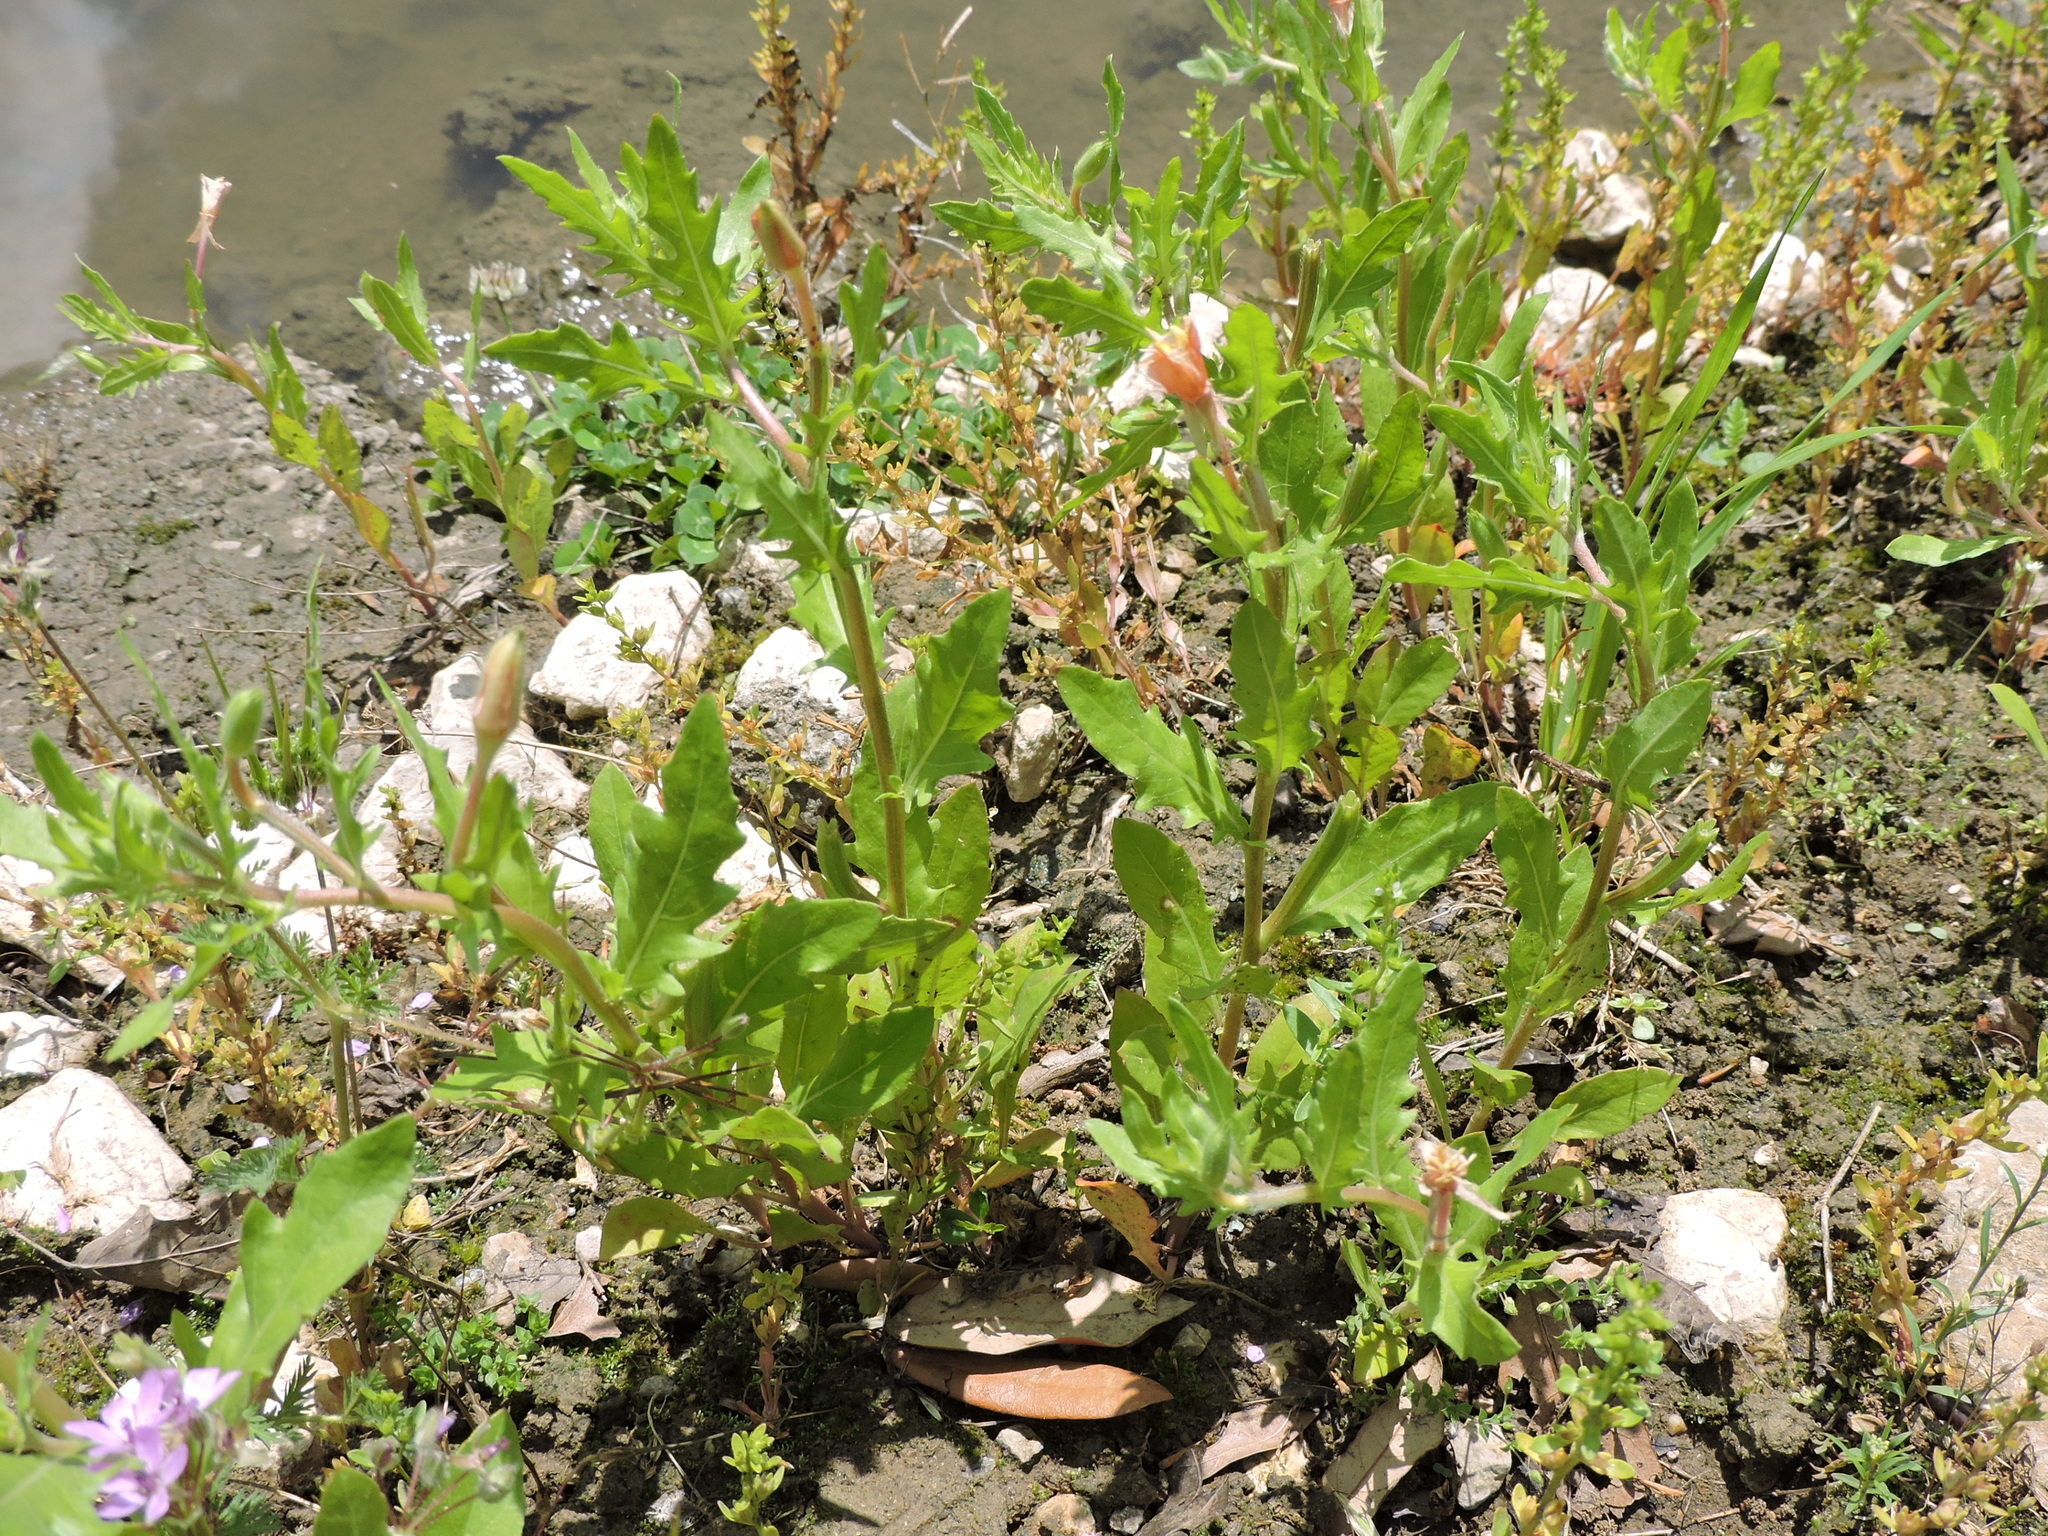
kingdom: Plantae
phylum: Tracheophyta
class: Magnoliopsida
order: Myrtales
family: Onagraceae
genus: Oenothera
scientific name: Oenothera laciniata
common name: Cut-leaved evening-primrose
